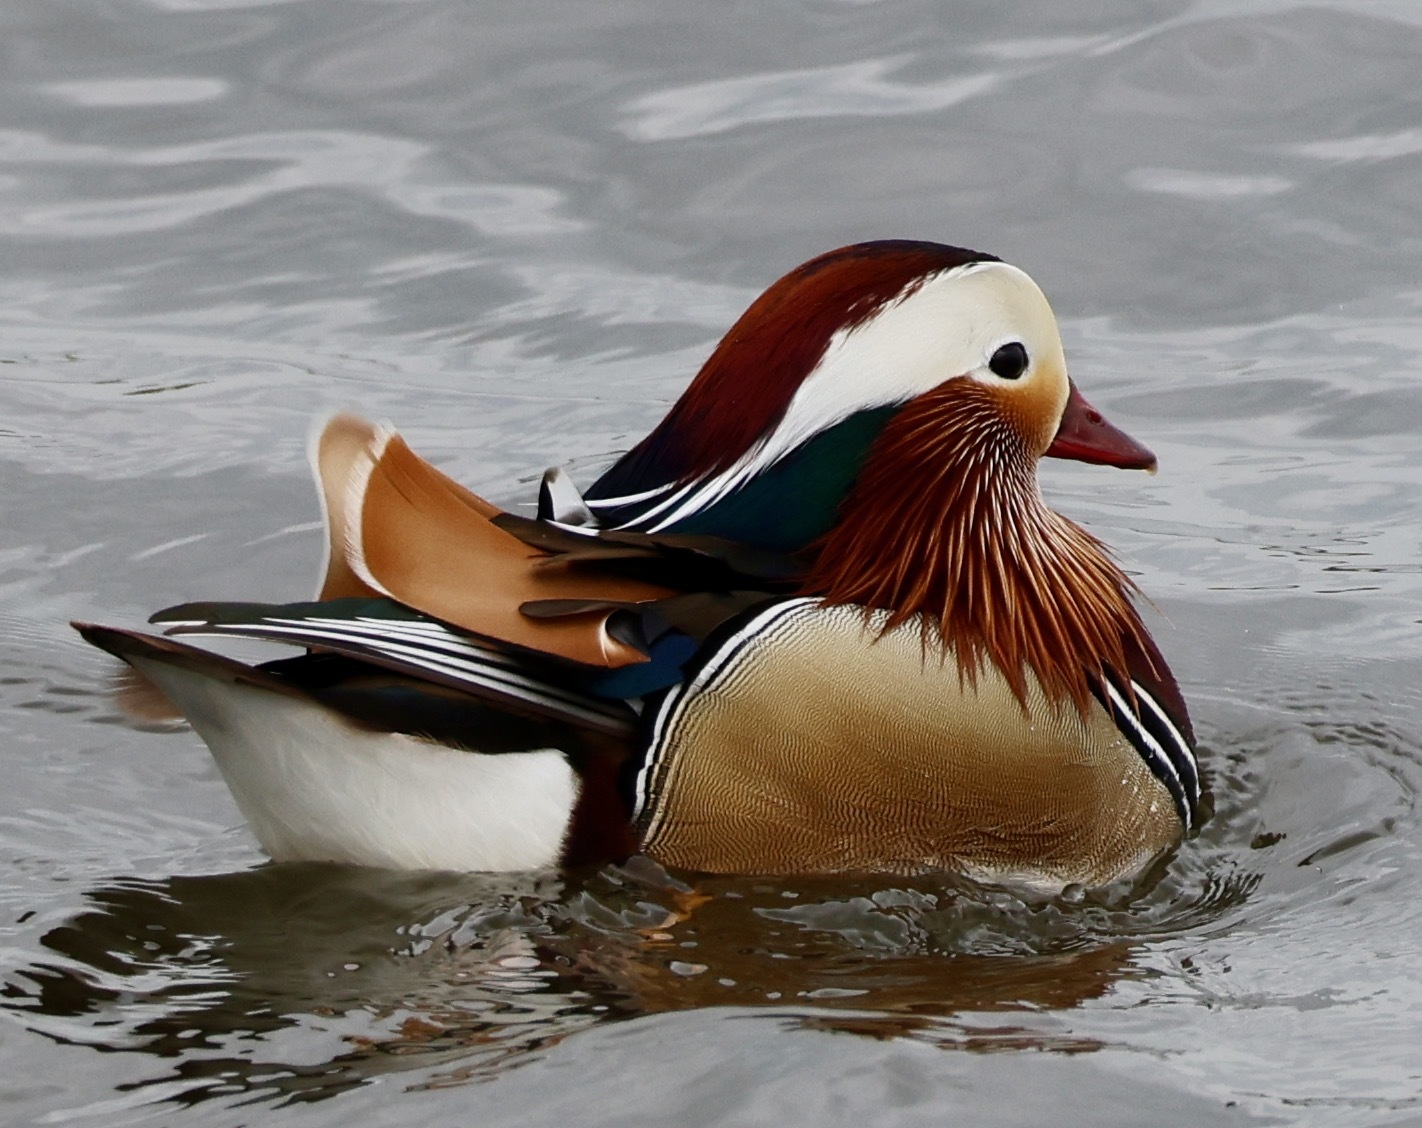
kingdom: Animalia
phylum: Chordata
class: Aves
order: Anseriformes
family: Anatidae
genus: Aix
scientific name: Aix galericulata
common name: Mandarin duck
